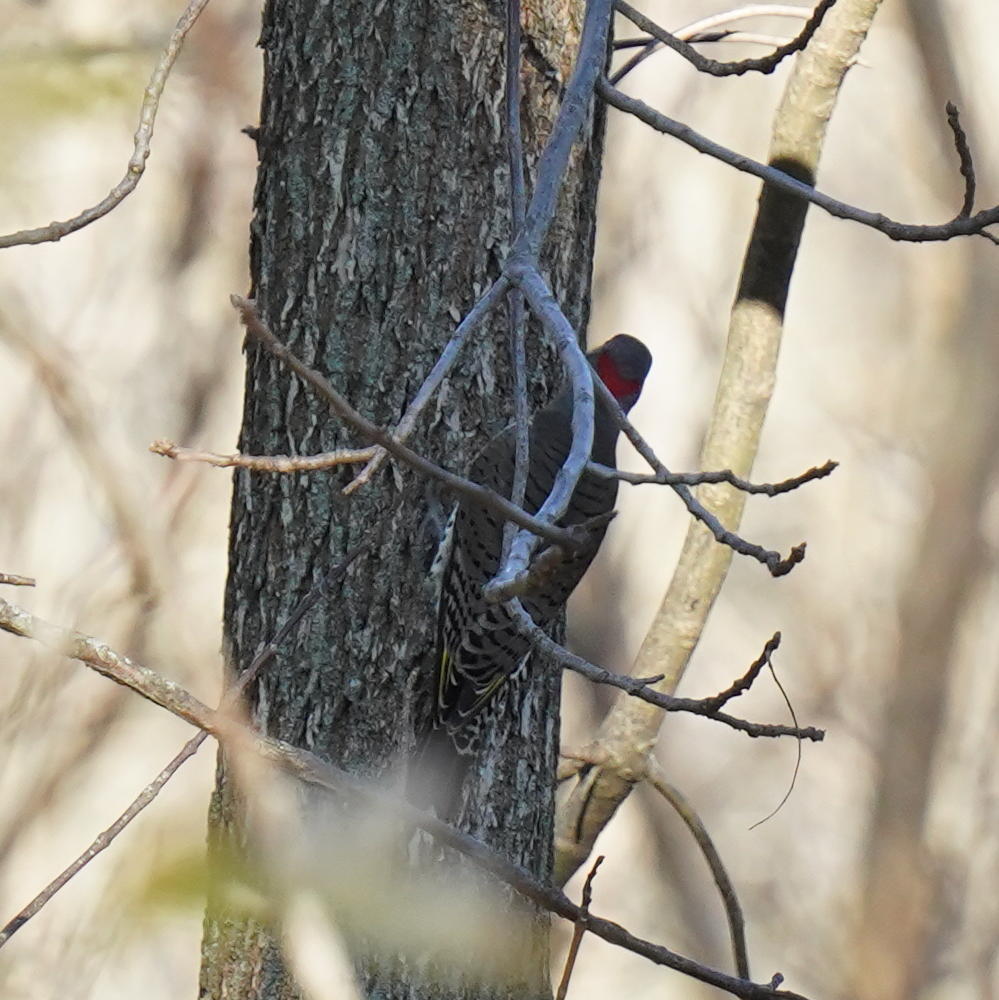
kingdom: Animalia
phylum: Chordata
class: Aves
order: Piciformes
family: Picidae
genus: Colaptes
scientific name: Colaptes auratus
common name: Northern flicker
